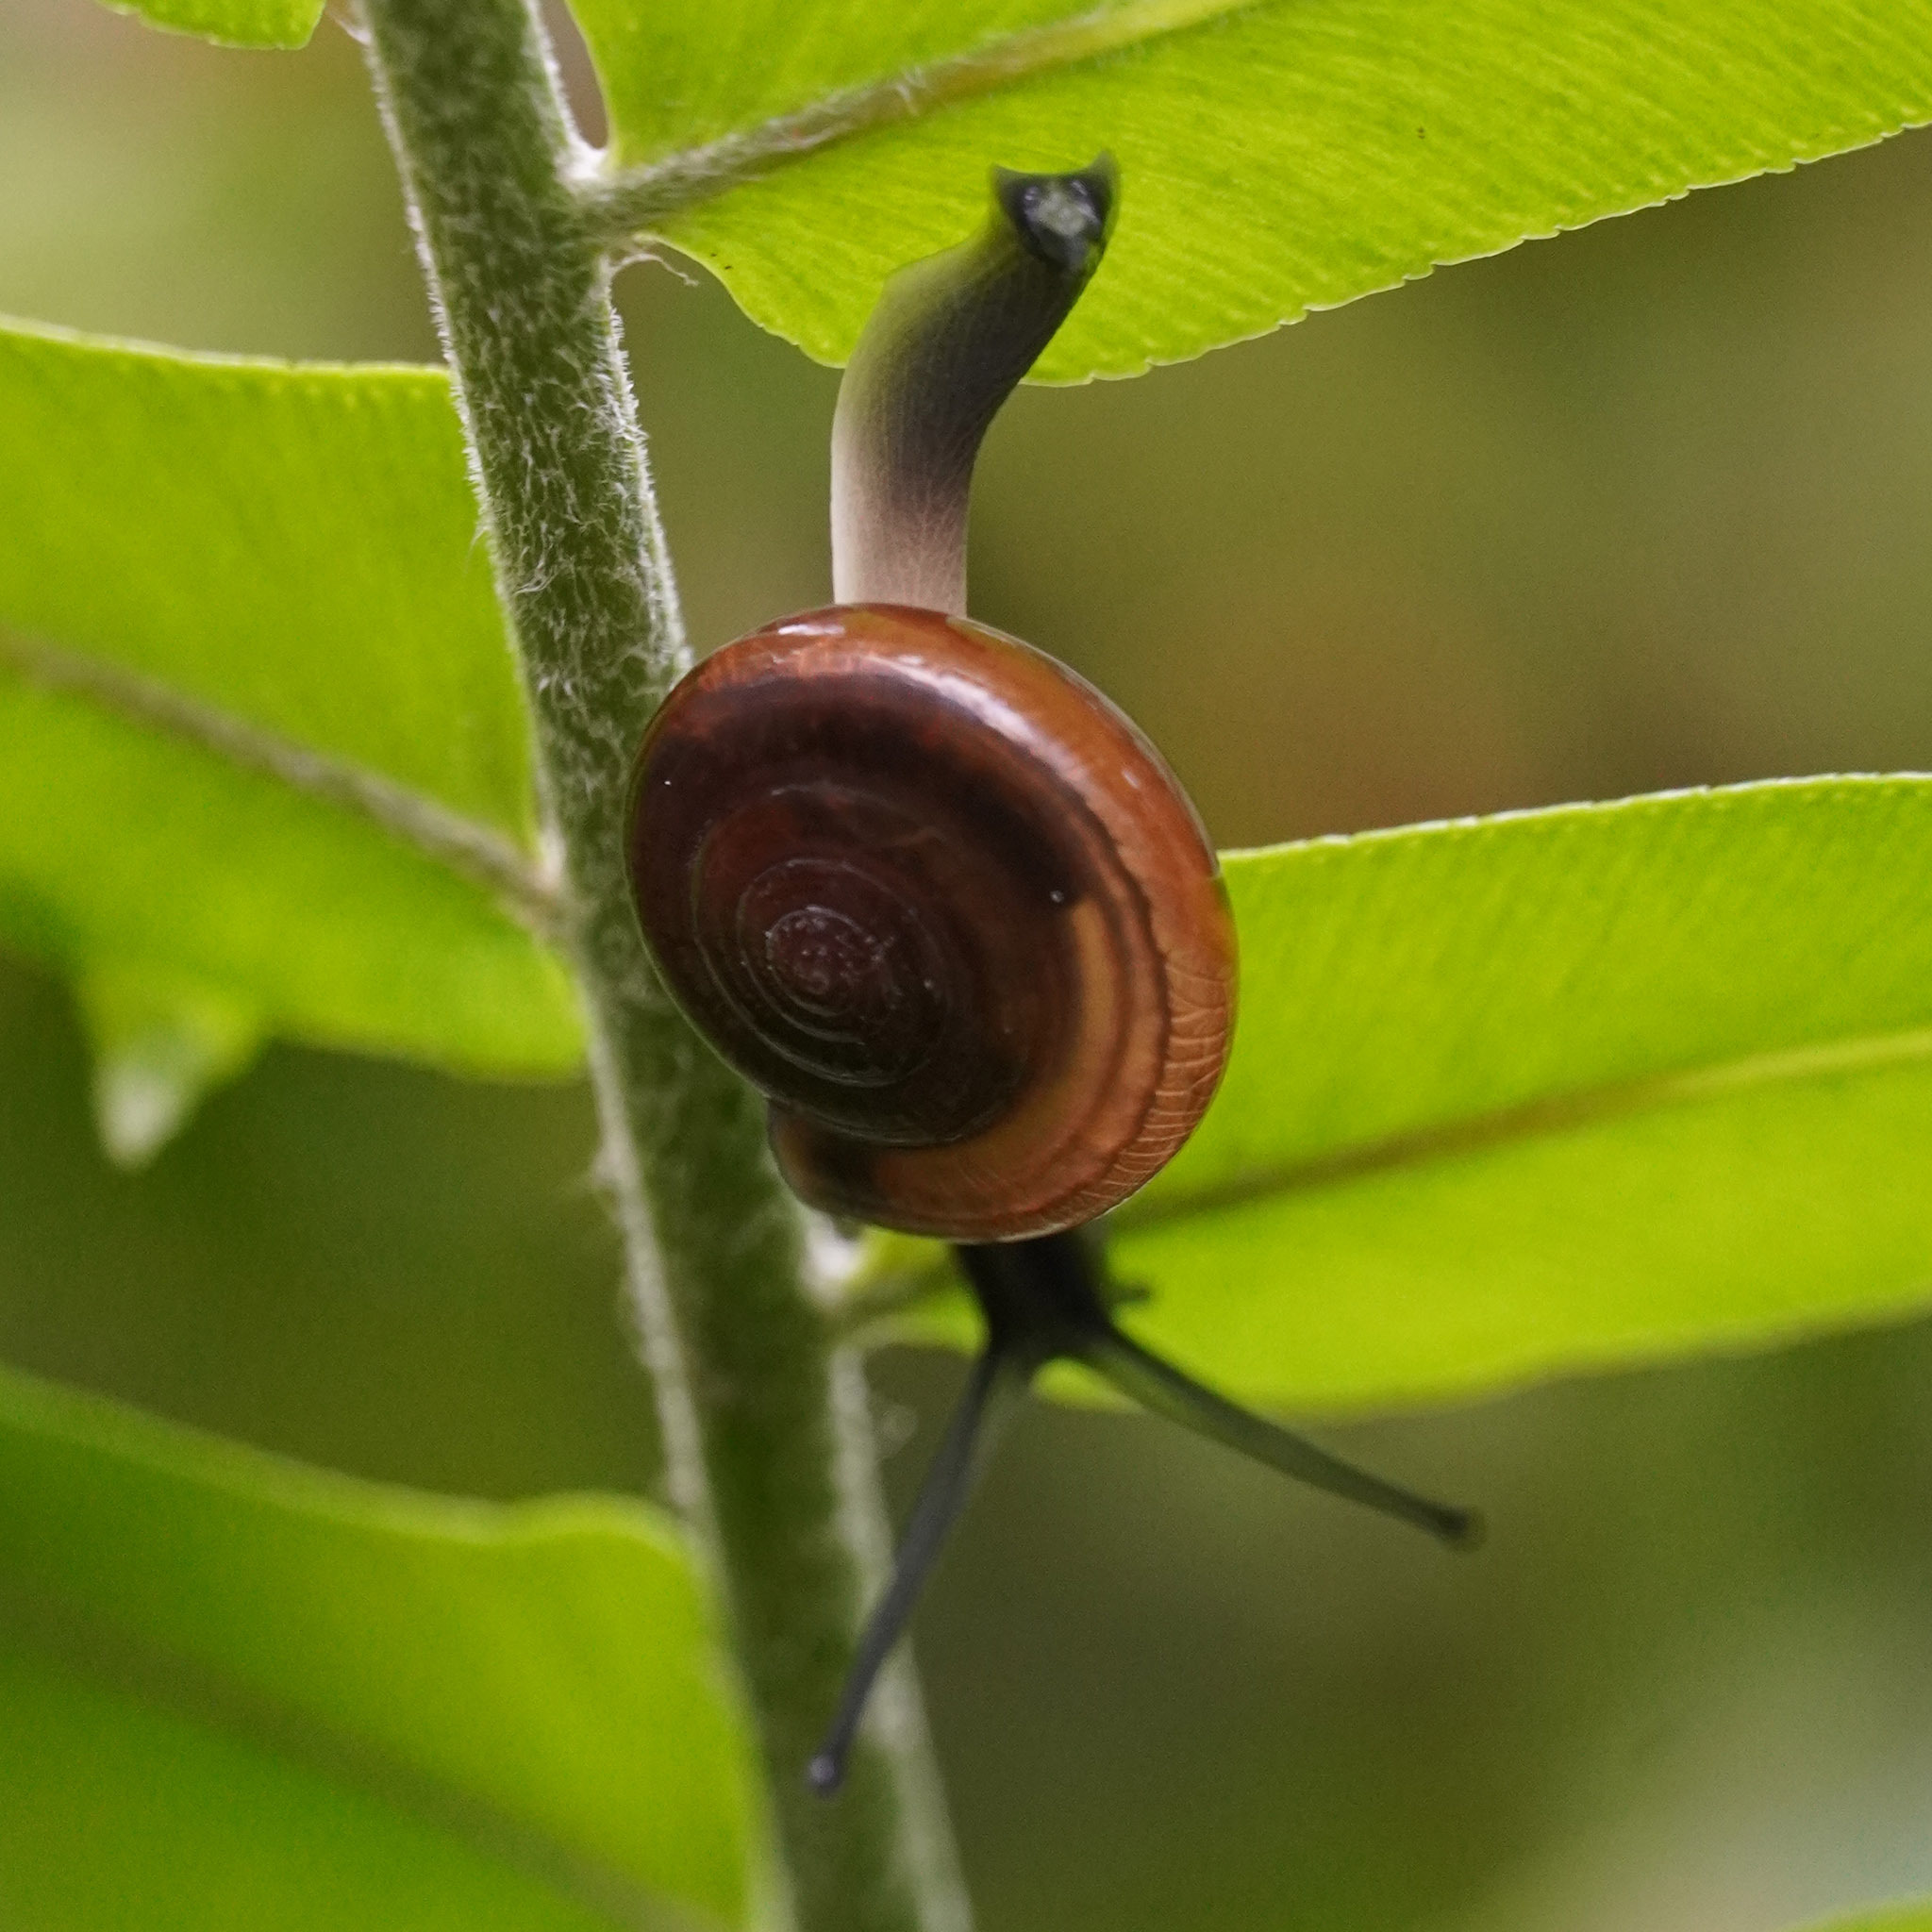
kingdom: Animalia
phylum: Mollusca
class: Gastropoda
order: Stylommatophora
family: Ariophantidae
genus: Sarika
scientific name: Sarika resplendens
